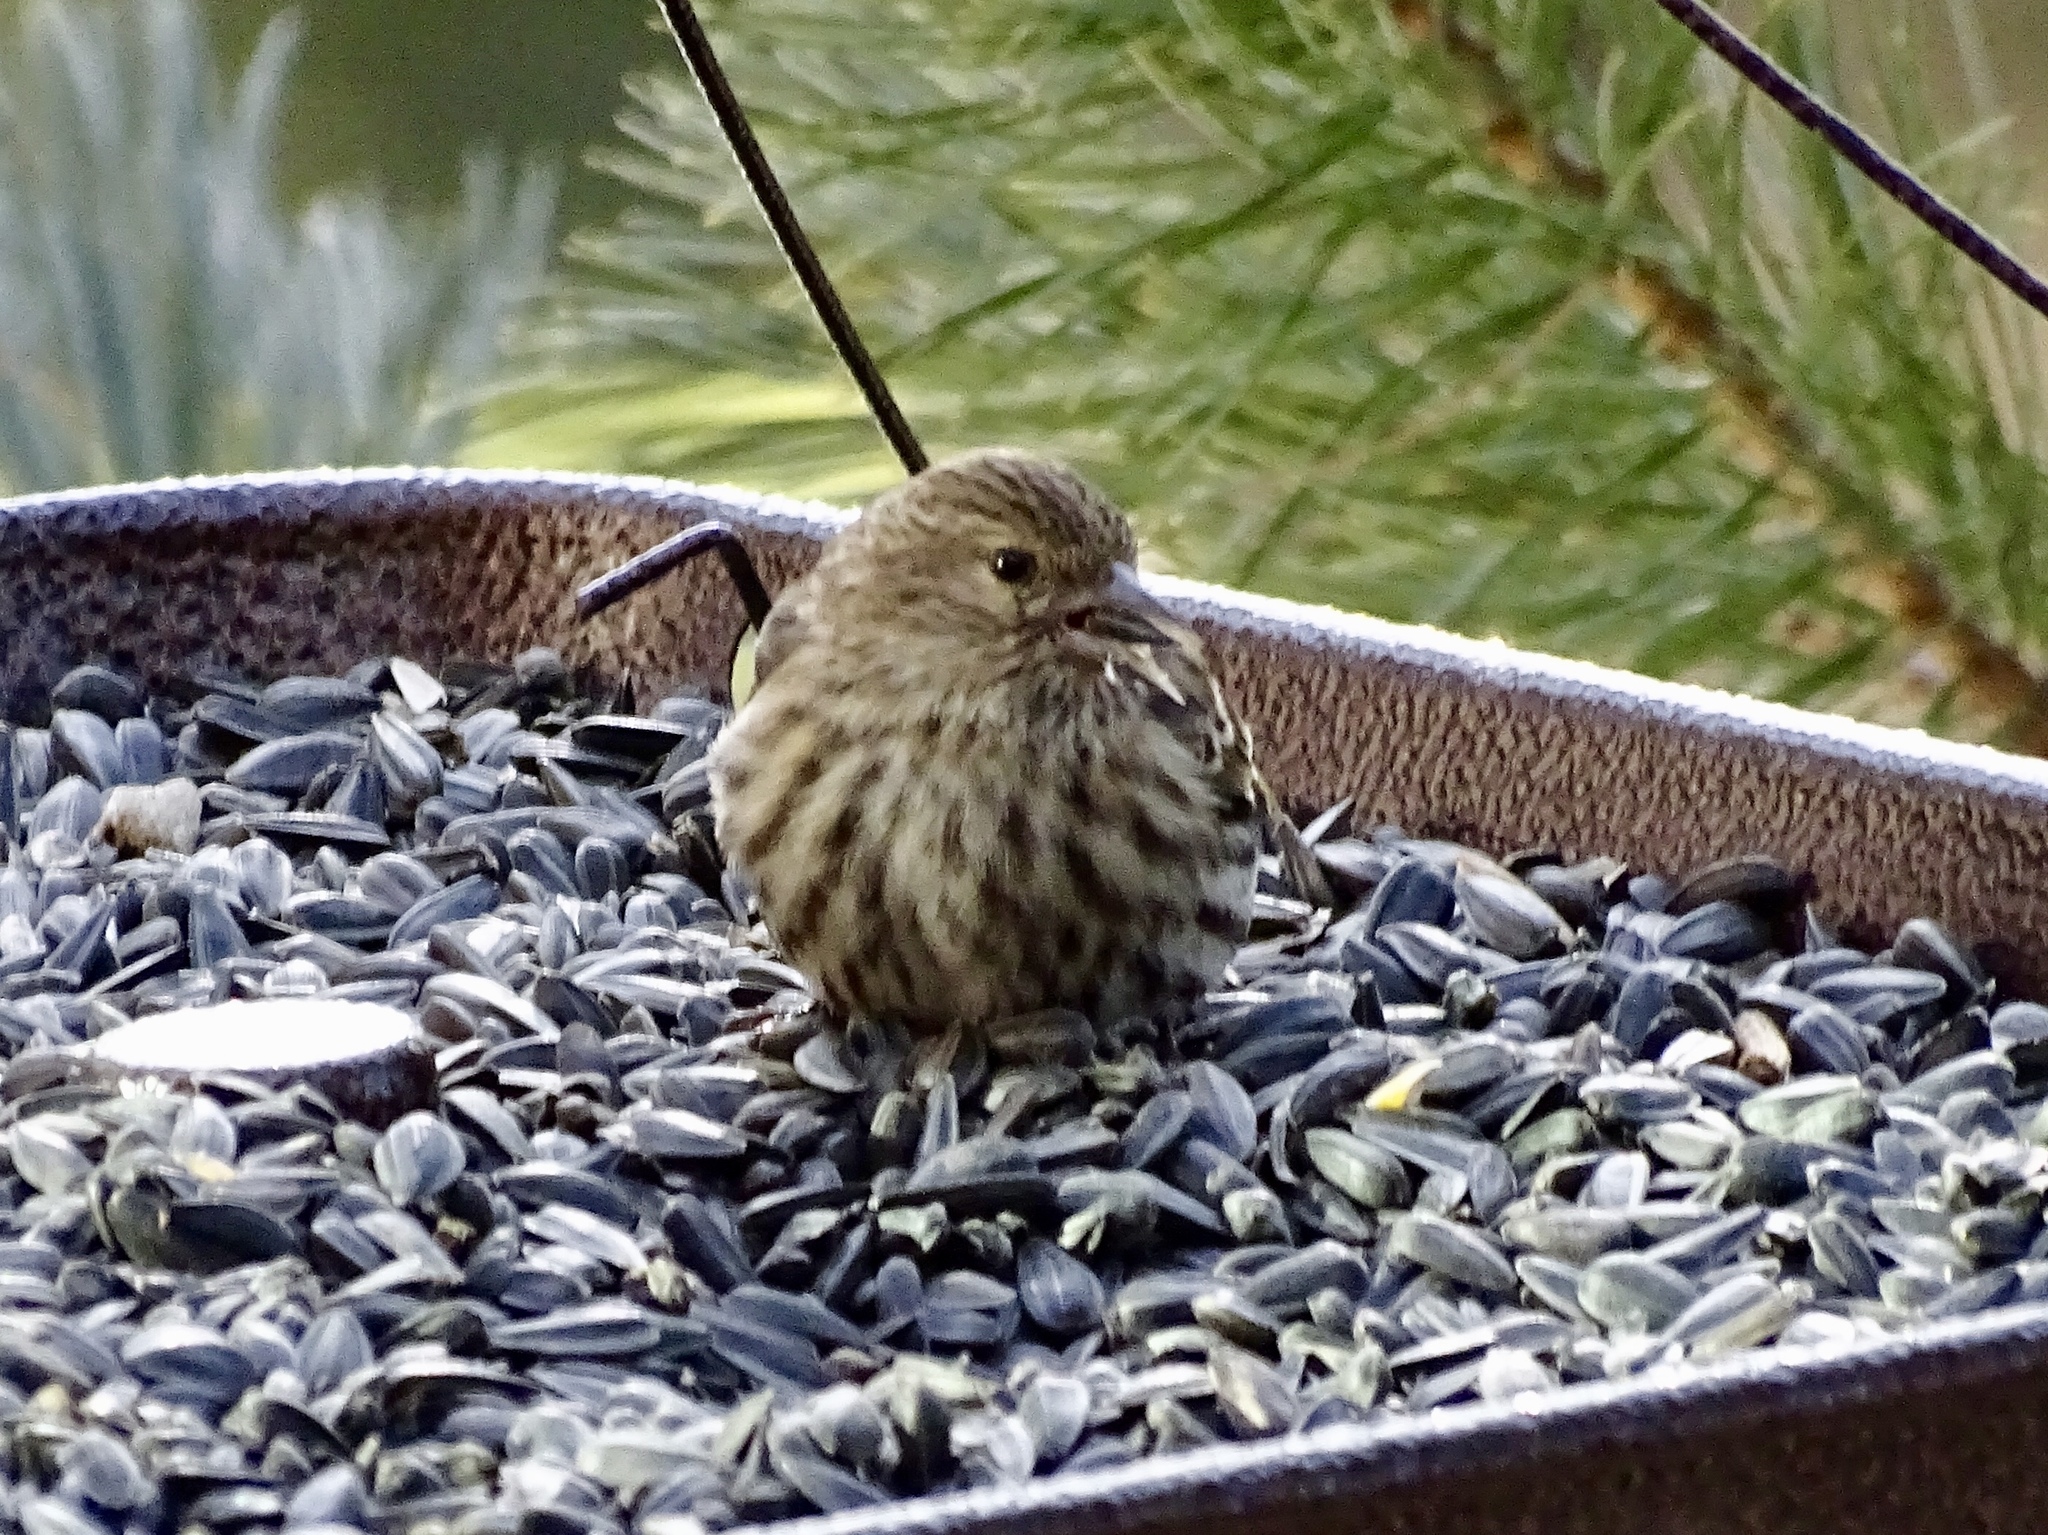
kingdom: Animalia
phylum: Chordata
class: Aves
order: Passeriformes
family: Fringillidae
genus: Spinus
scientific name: Spinus pinus
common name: Pine siskin
